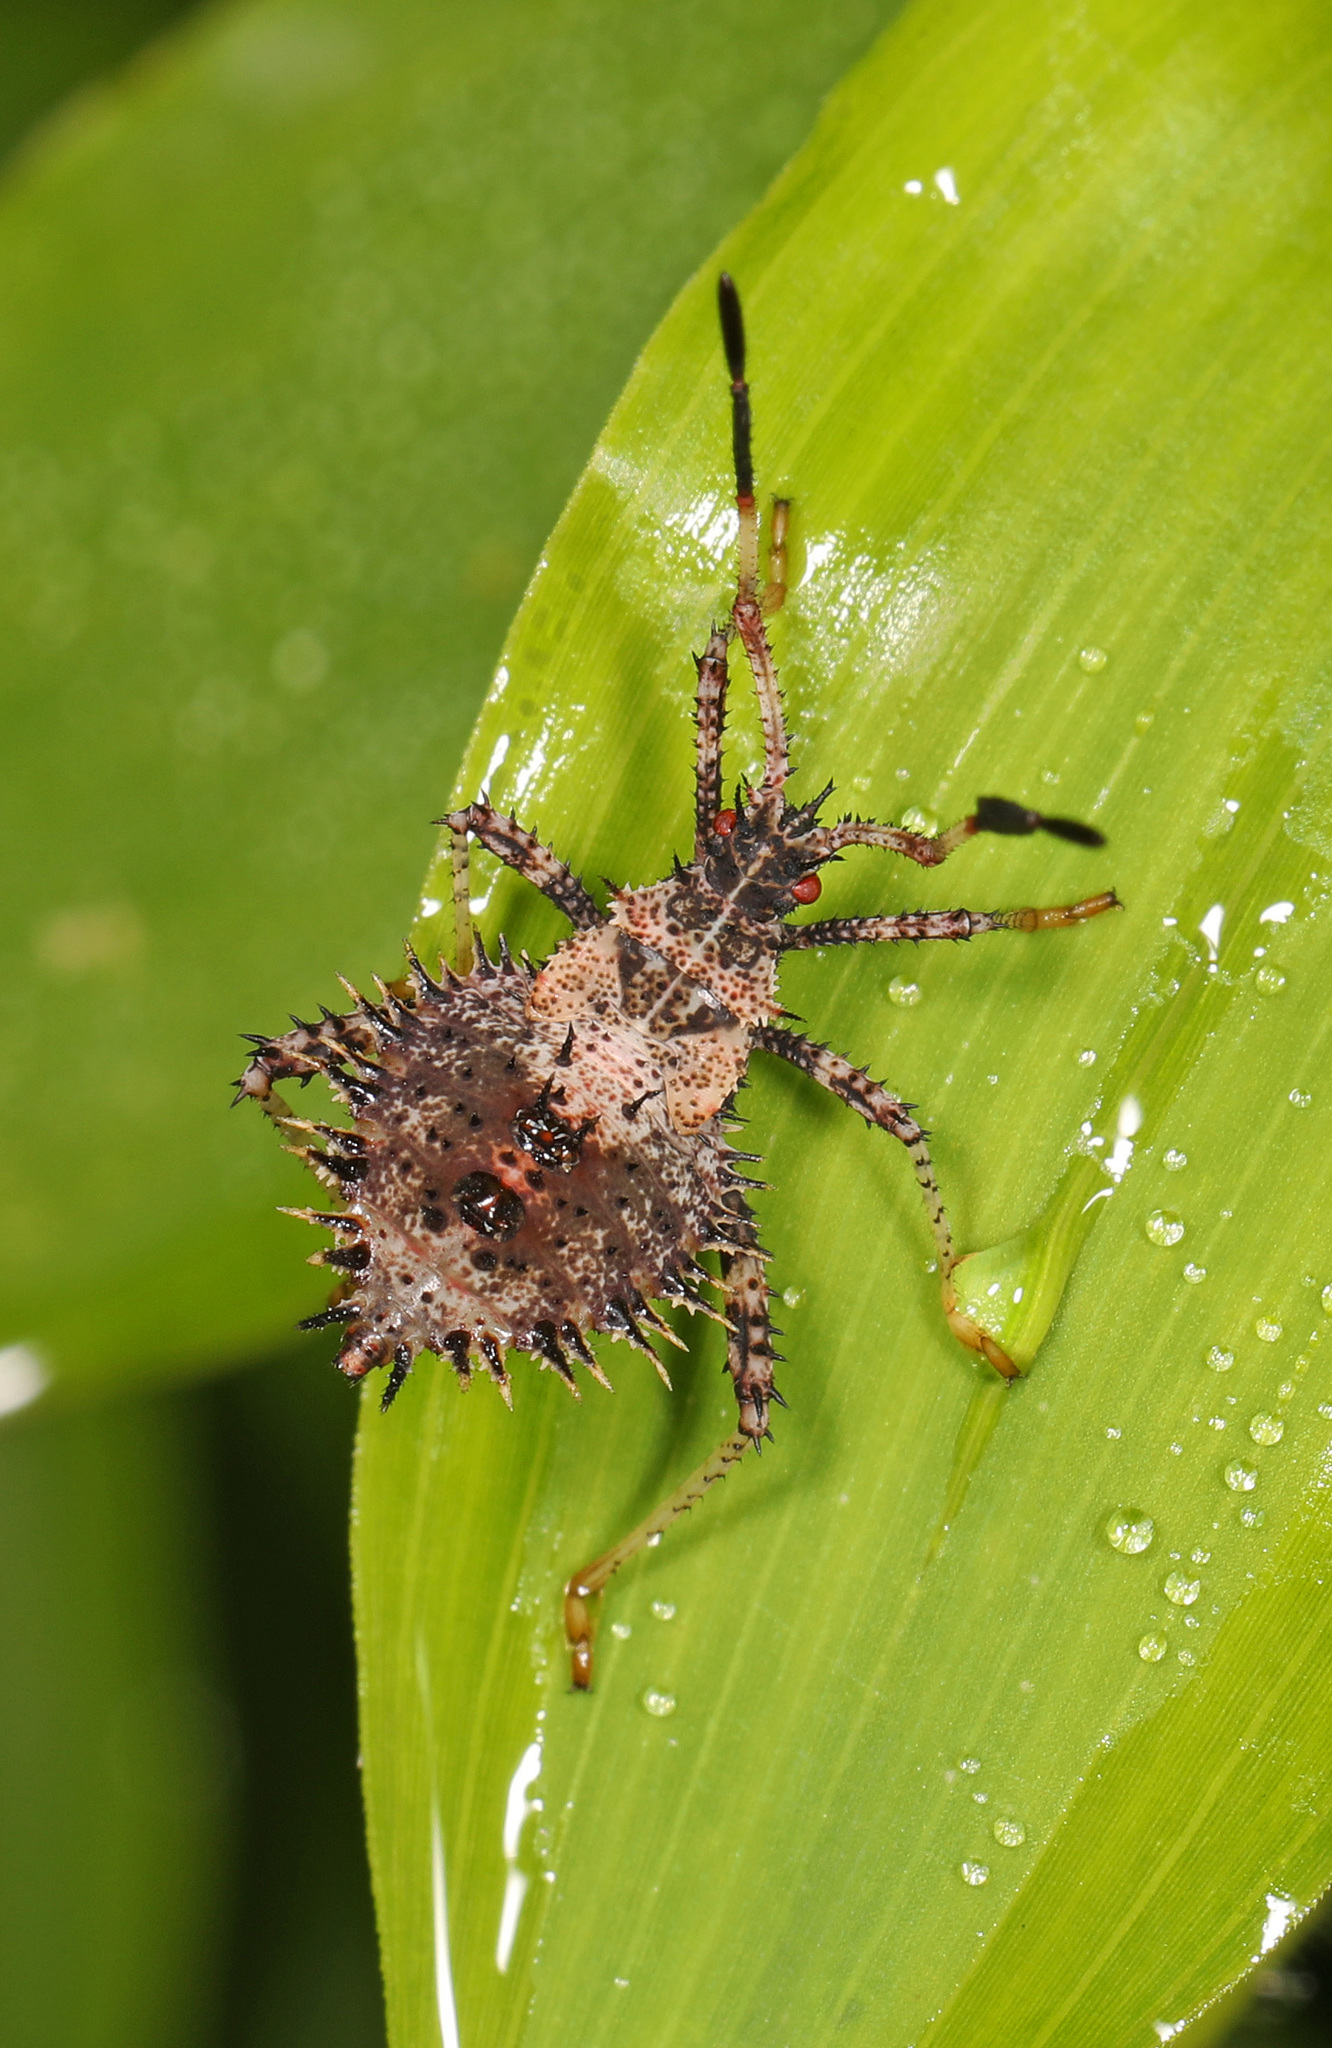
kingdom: Animalia
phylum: Arthropoda
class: Insecta
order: Hemiptera
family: Coreidae
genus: Euthochtha
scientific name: Euthochtha galeator
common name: Helmeted squash bug
